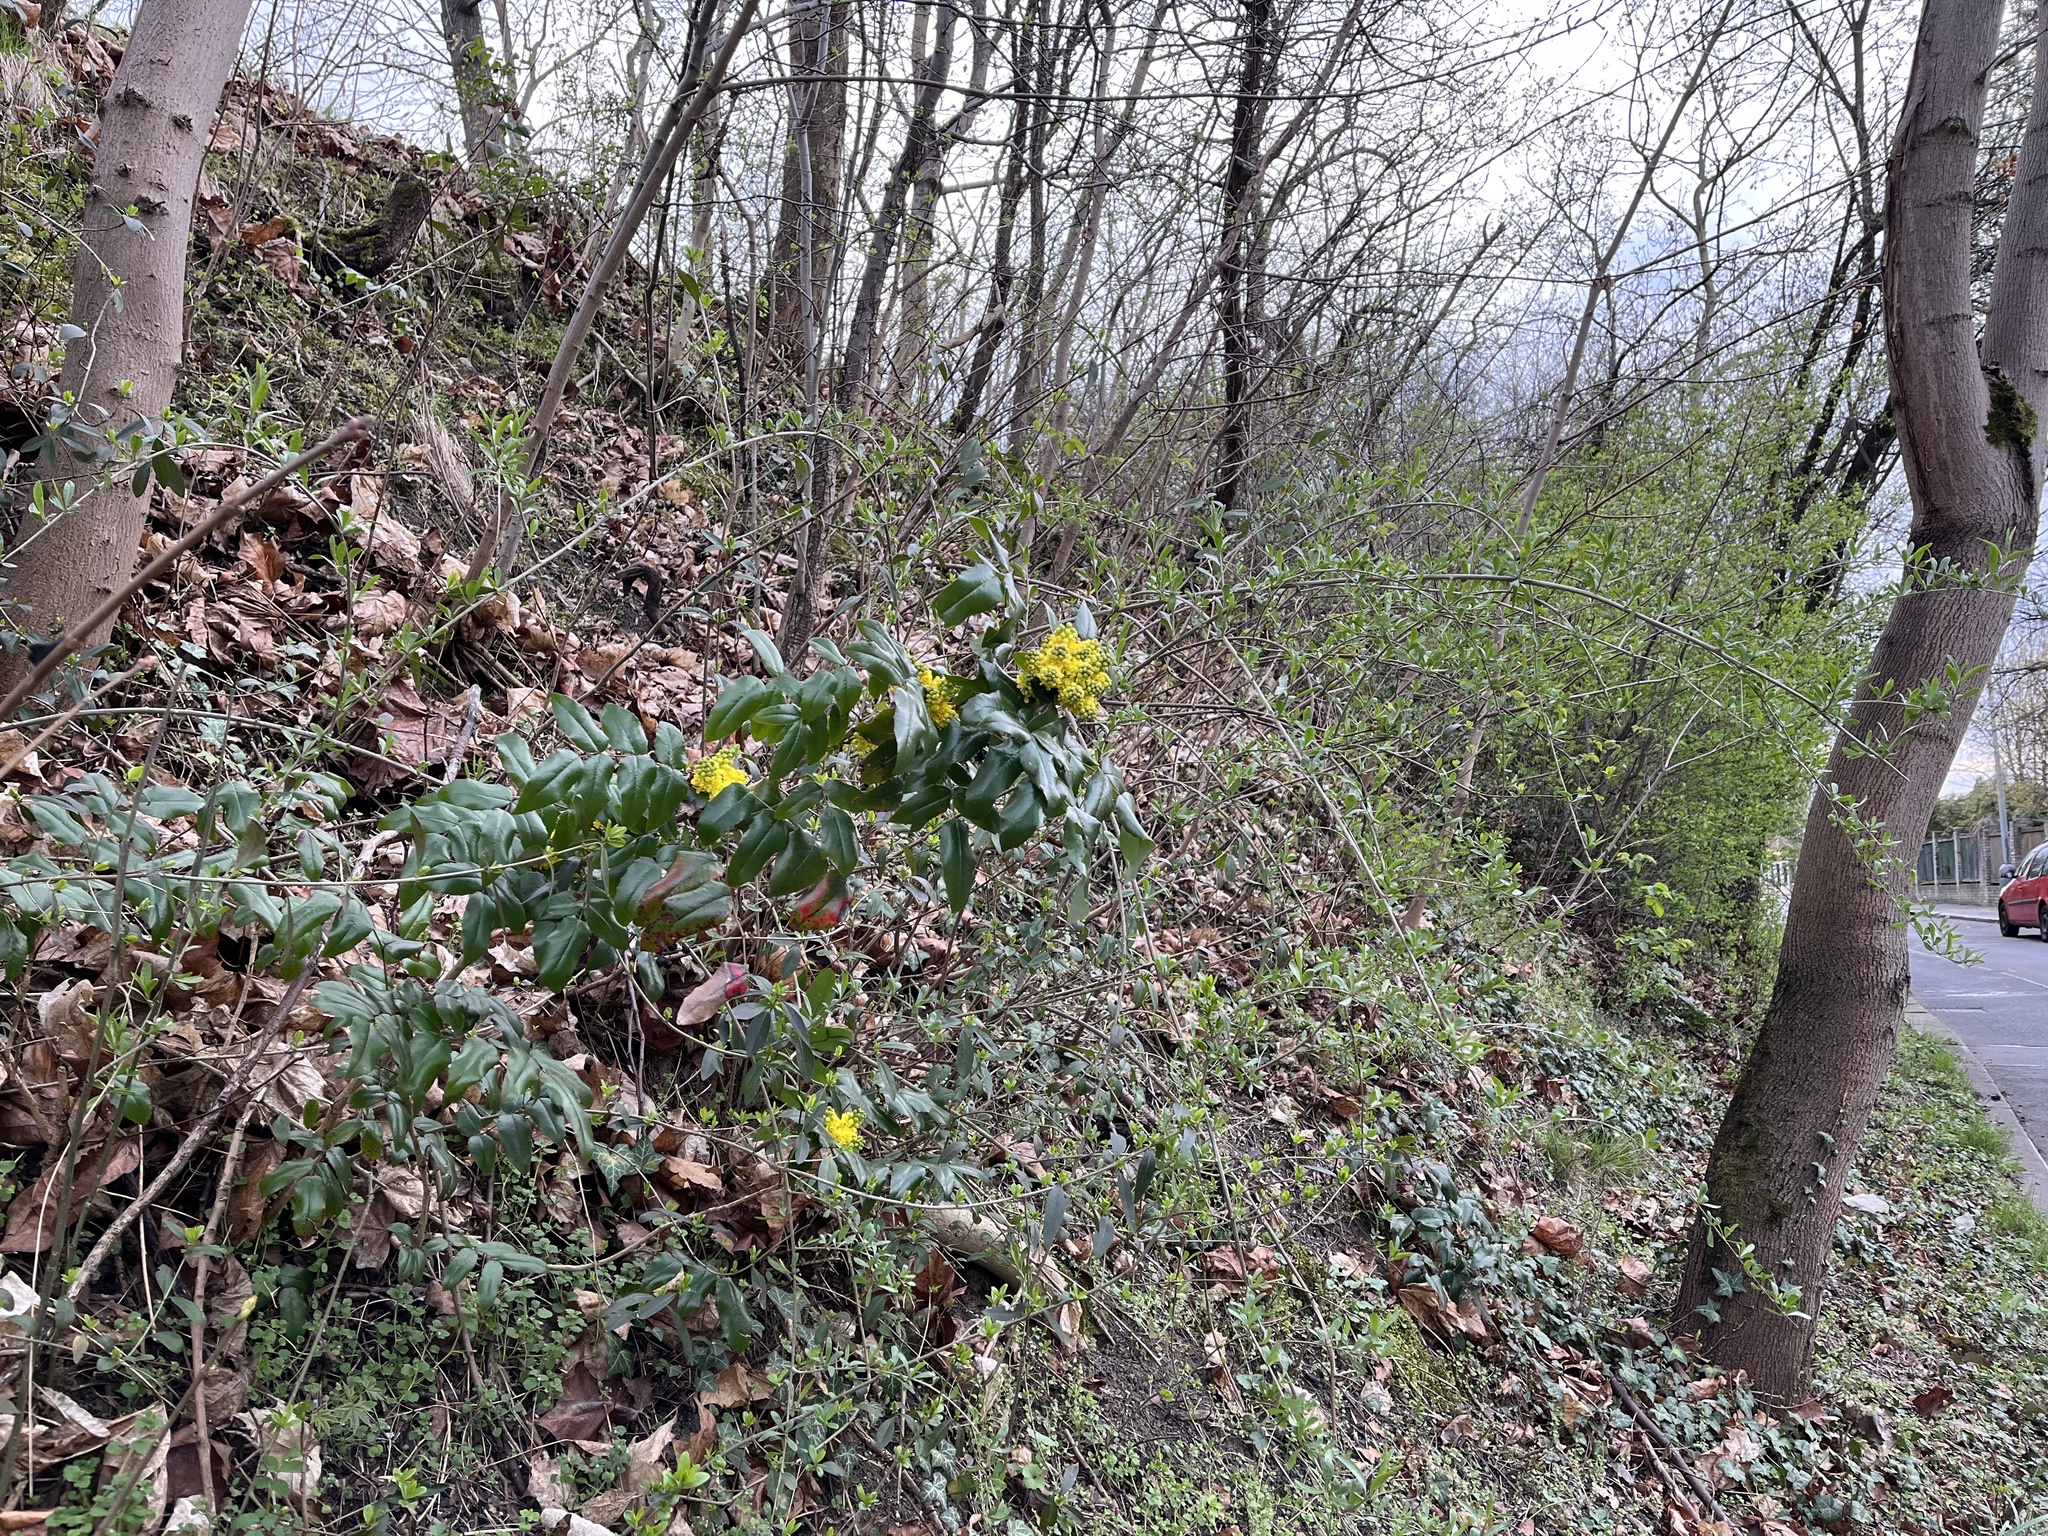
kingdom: Plantae
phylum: Tracheophyta
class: Magnoliopsida
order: Ranunculales
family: Berberidaceae
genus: Mahonia
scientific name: Mahonia aquifolium
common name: Oregon-grape
